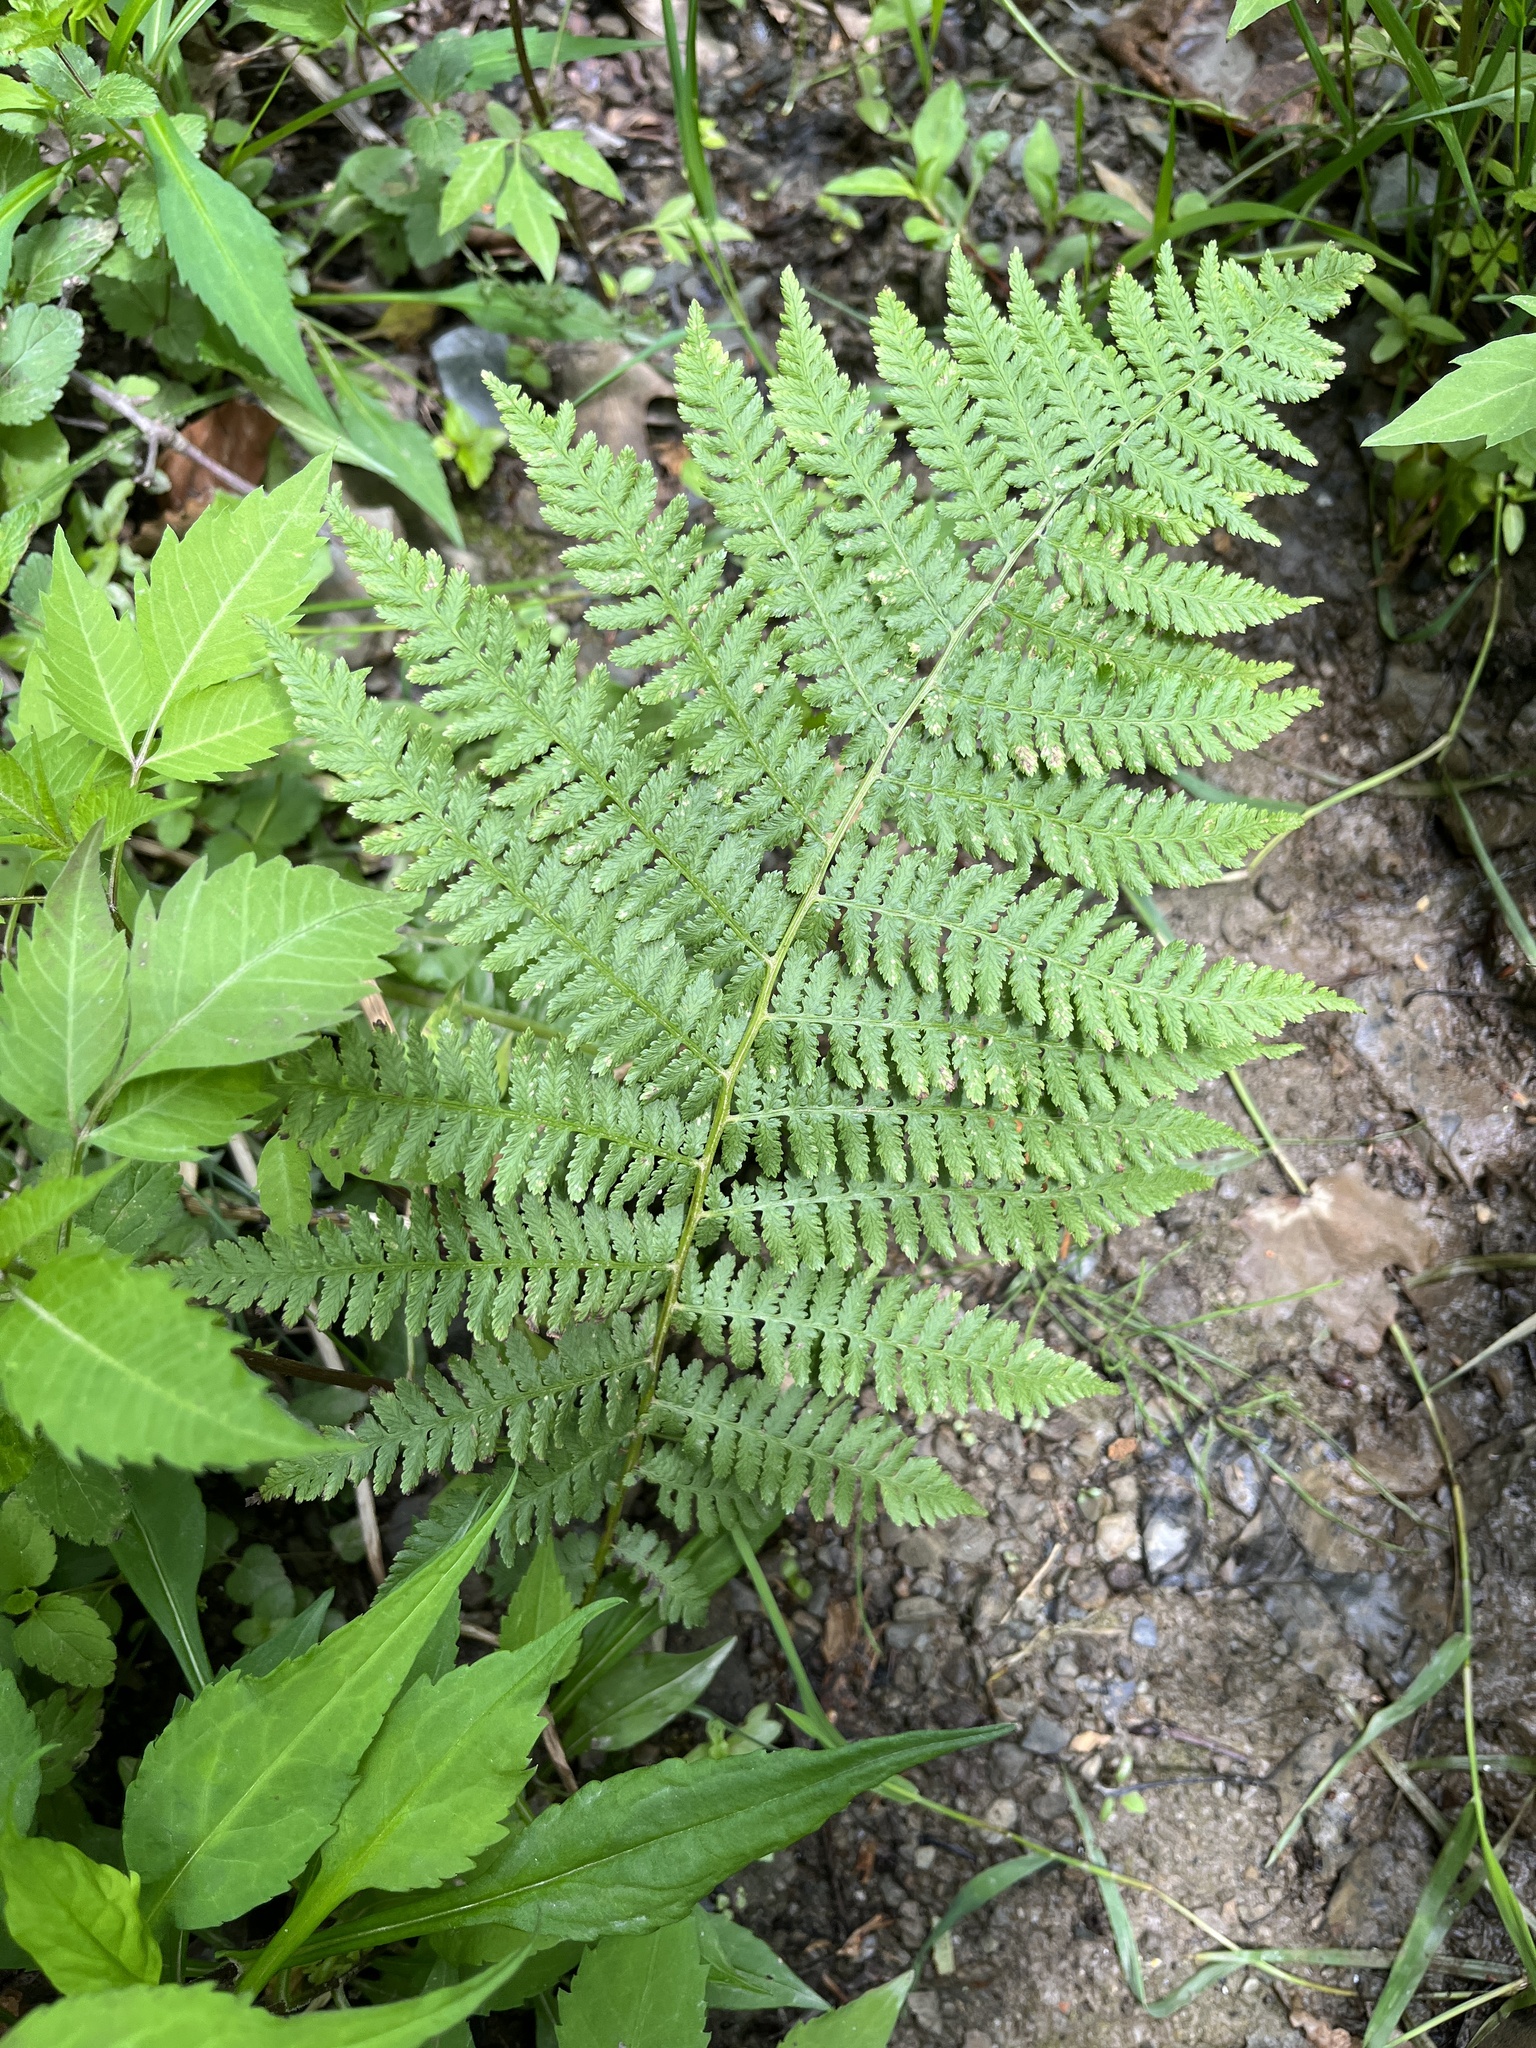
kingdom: Plantae
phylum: Tracheophyta
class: Polypodiopsida
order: Polypodiales
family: Athyriaceae
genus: Athyrium
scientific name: Athyrium angustum
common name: Northern lady fern
